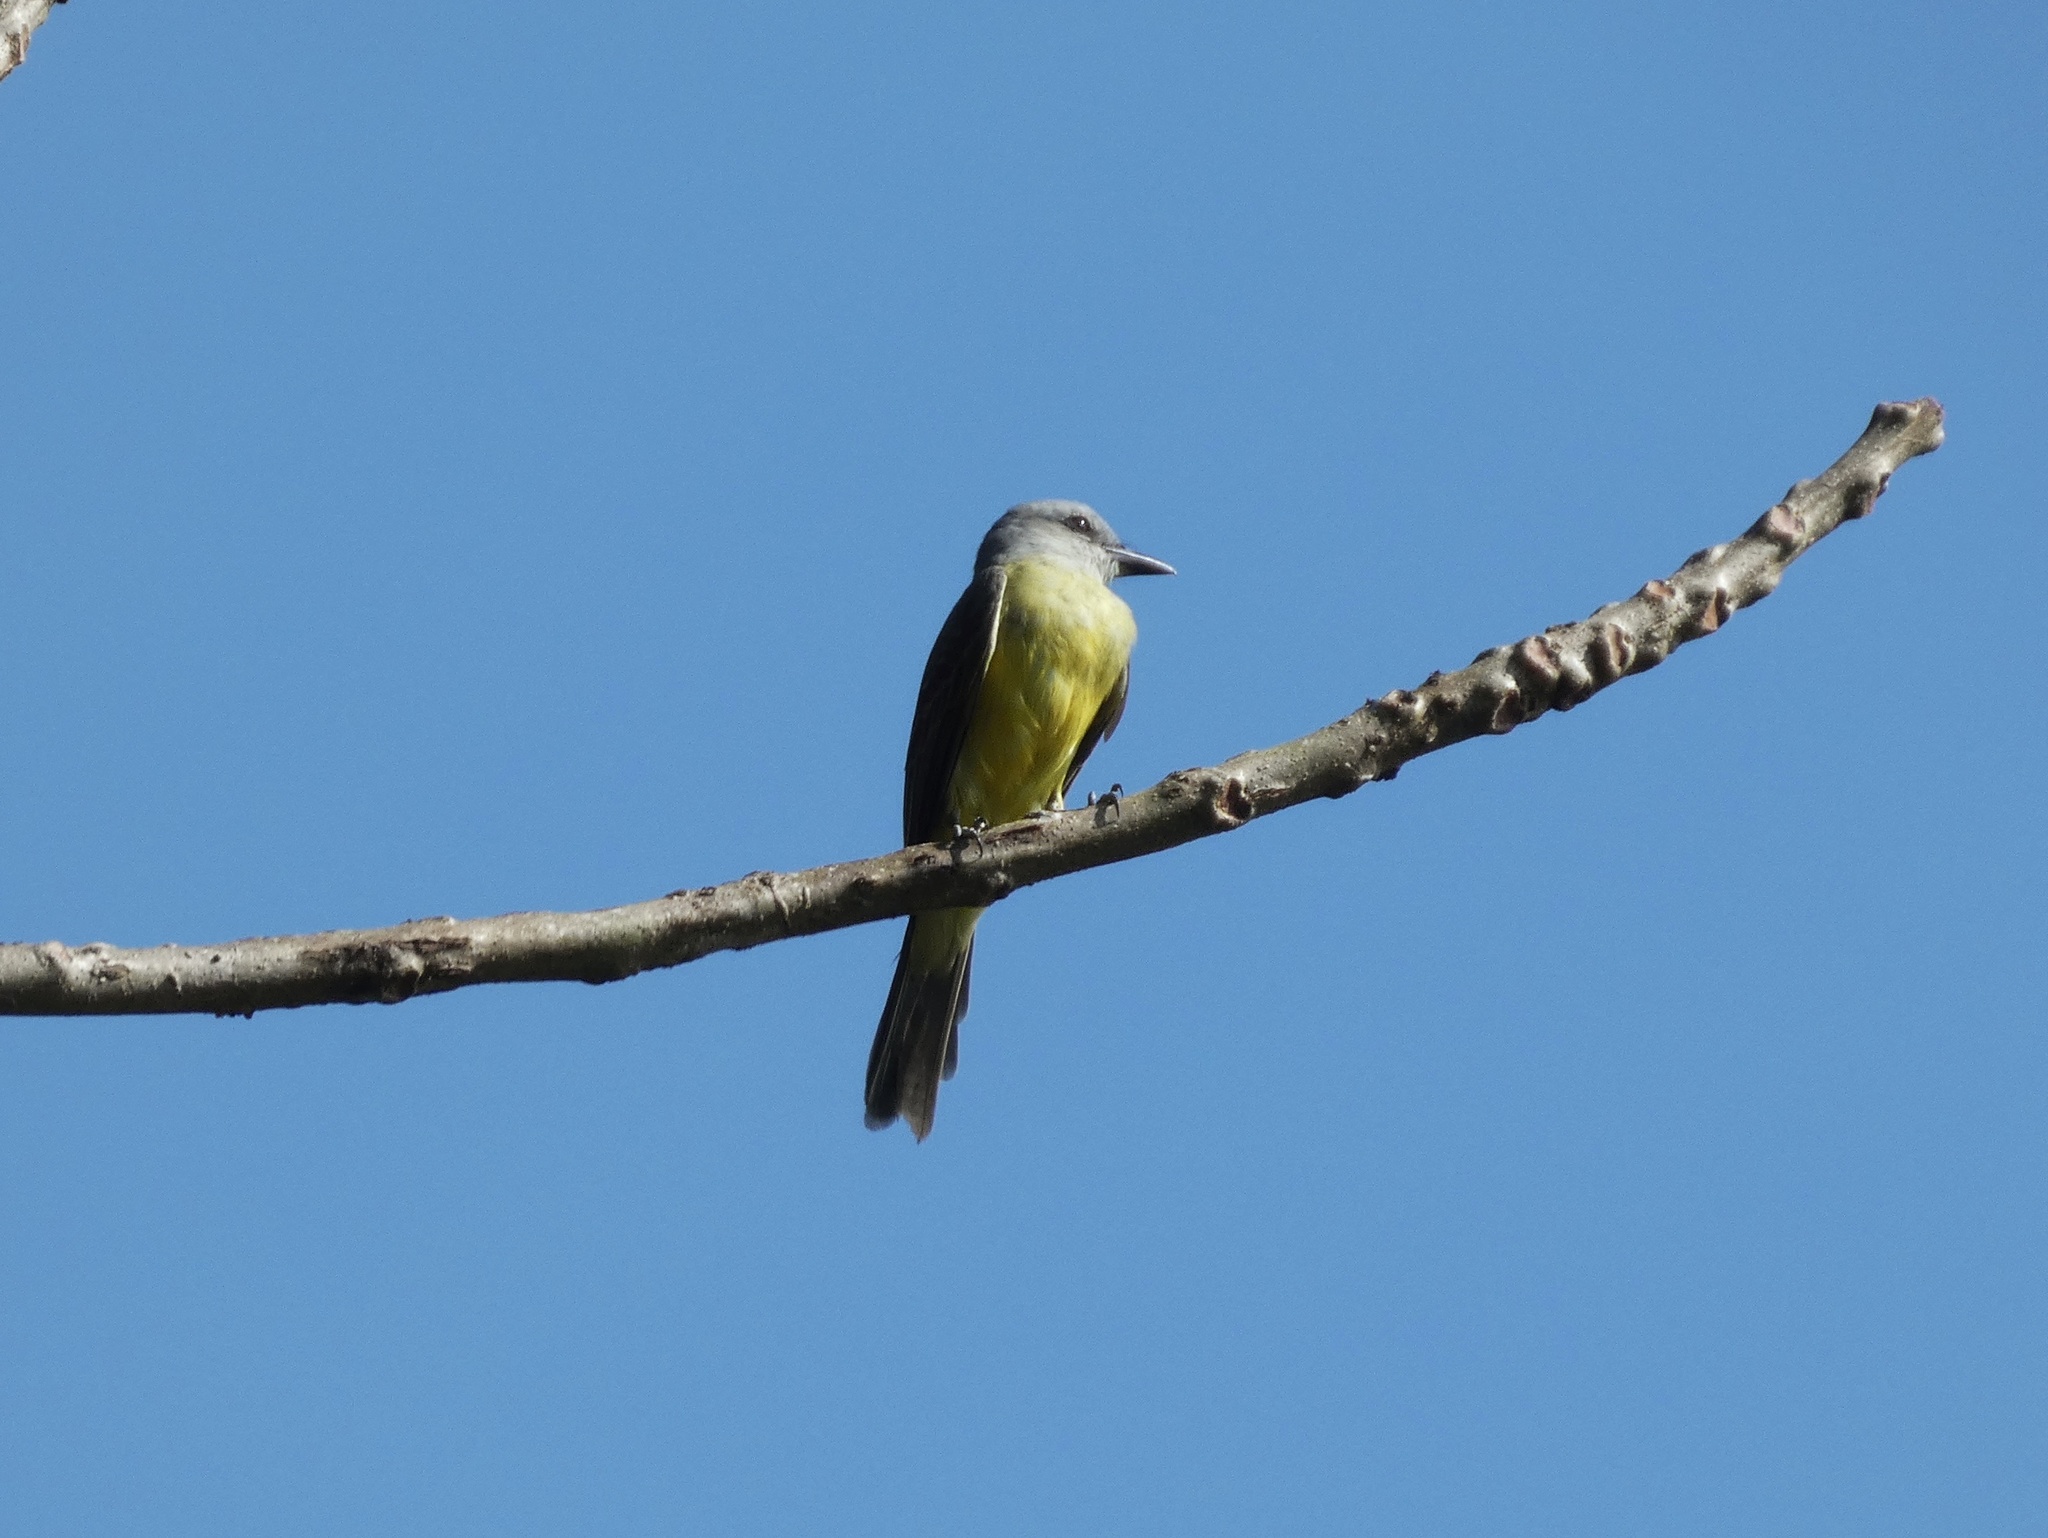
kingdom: Animalia
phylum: Chordata
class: Aves
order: Passeriformes
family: Tyrannidae
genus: Tyrannus
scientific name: Tyrannus melancholicus
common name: Tropical kingbird
